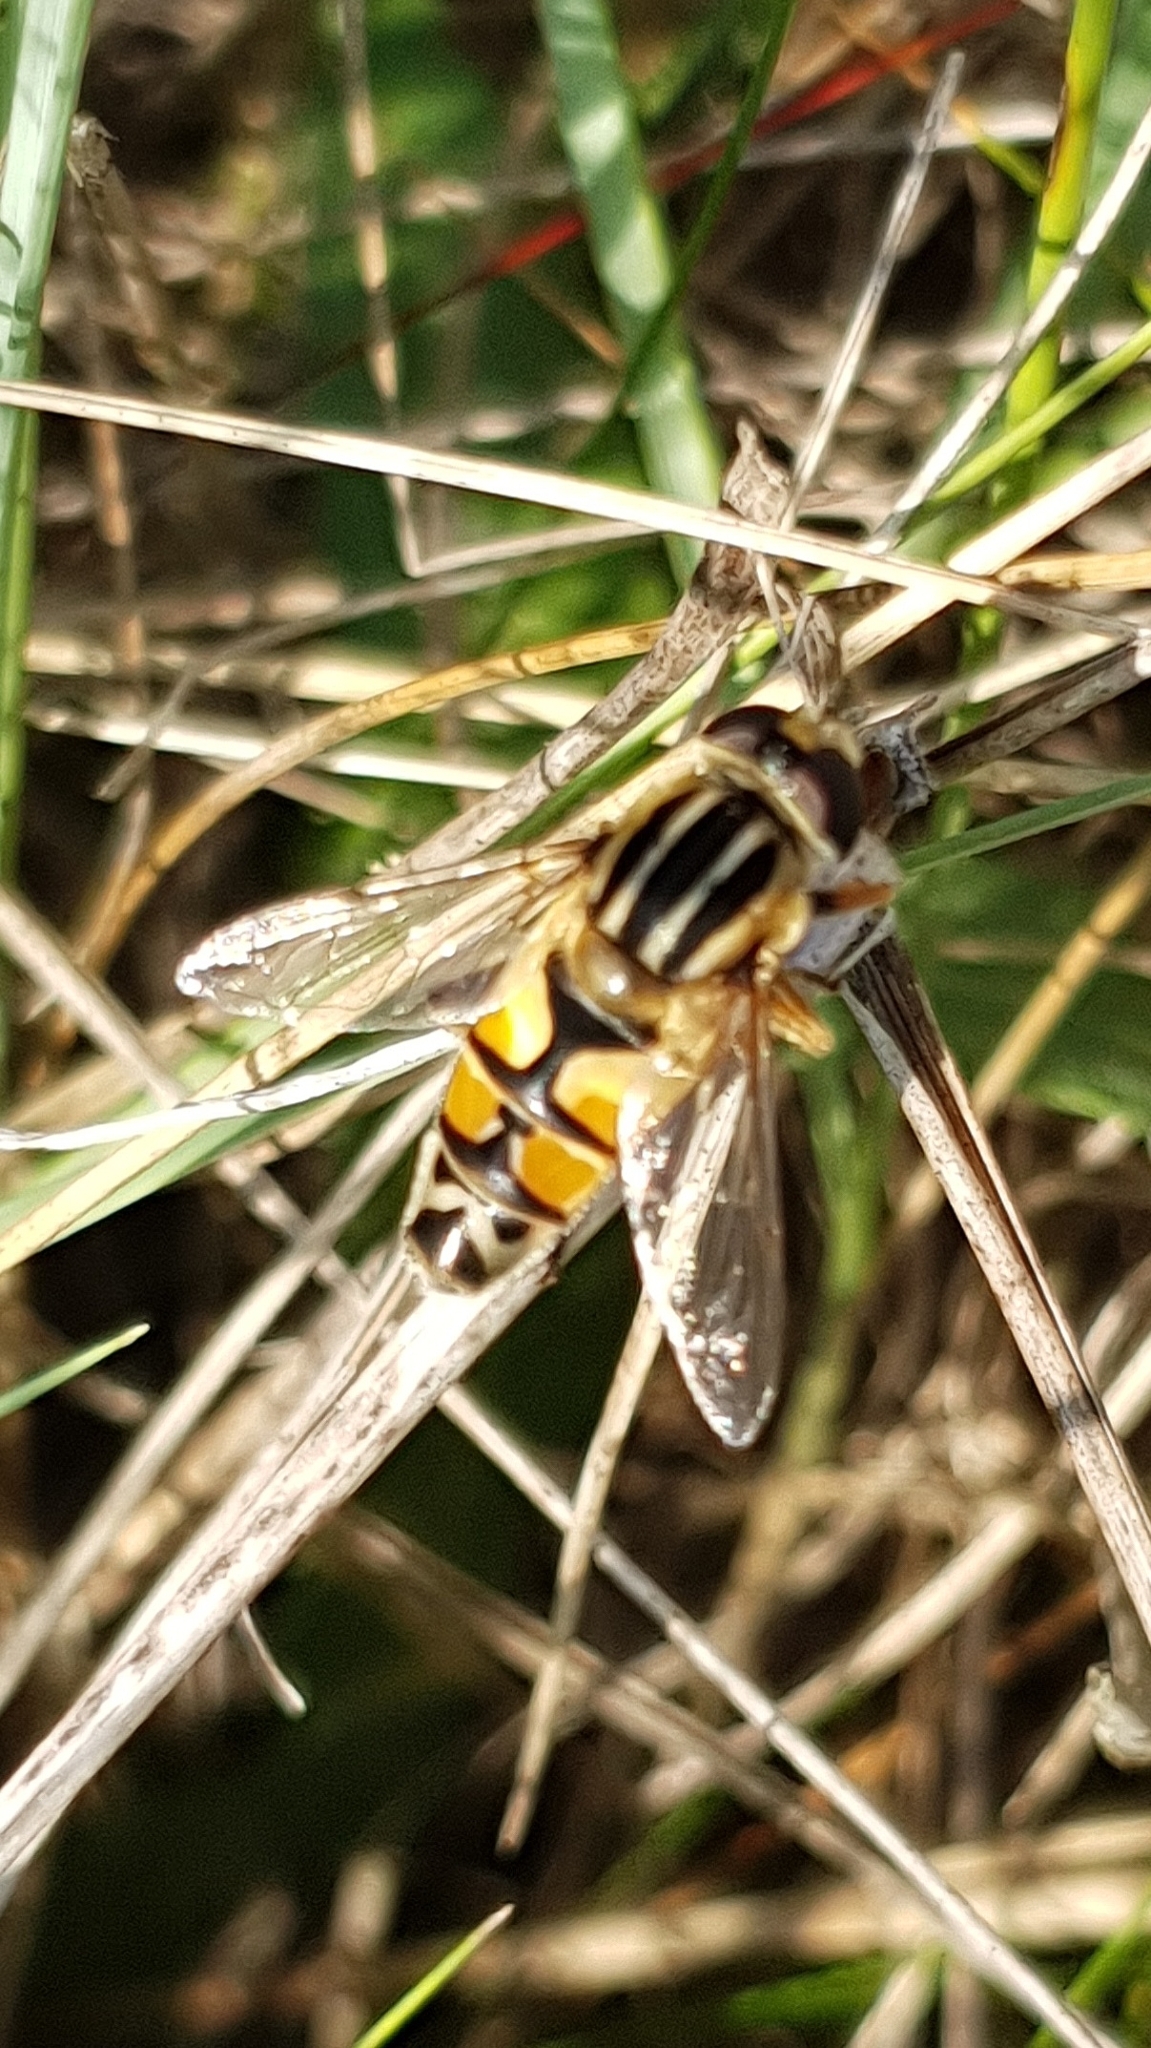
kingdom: Animalia
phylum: Arthropoda
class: Insecta
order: Diptera
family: Syrphidae
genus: Helophilus
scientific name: Helophilus trivittatus
